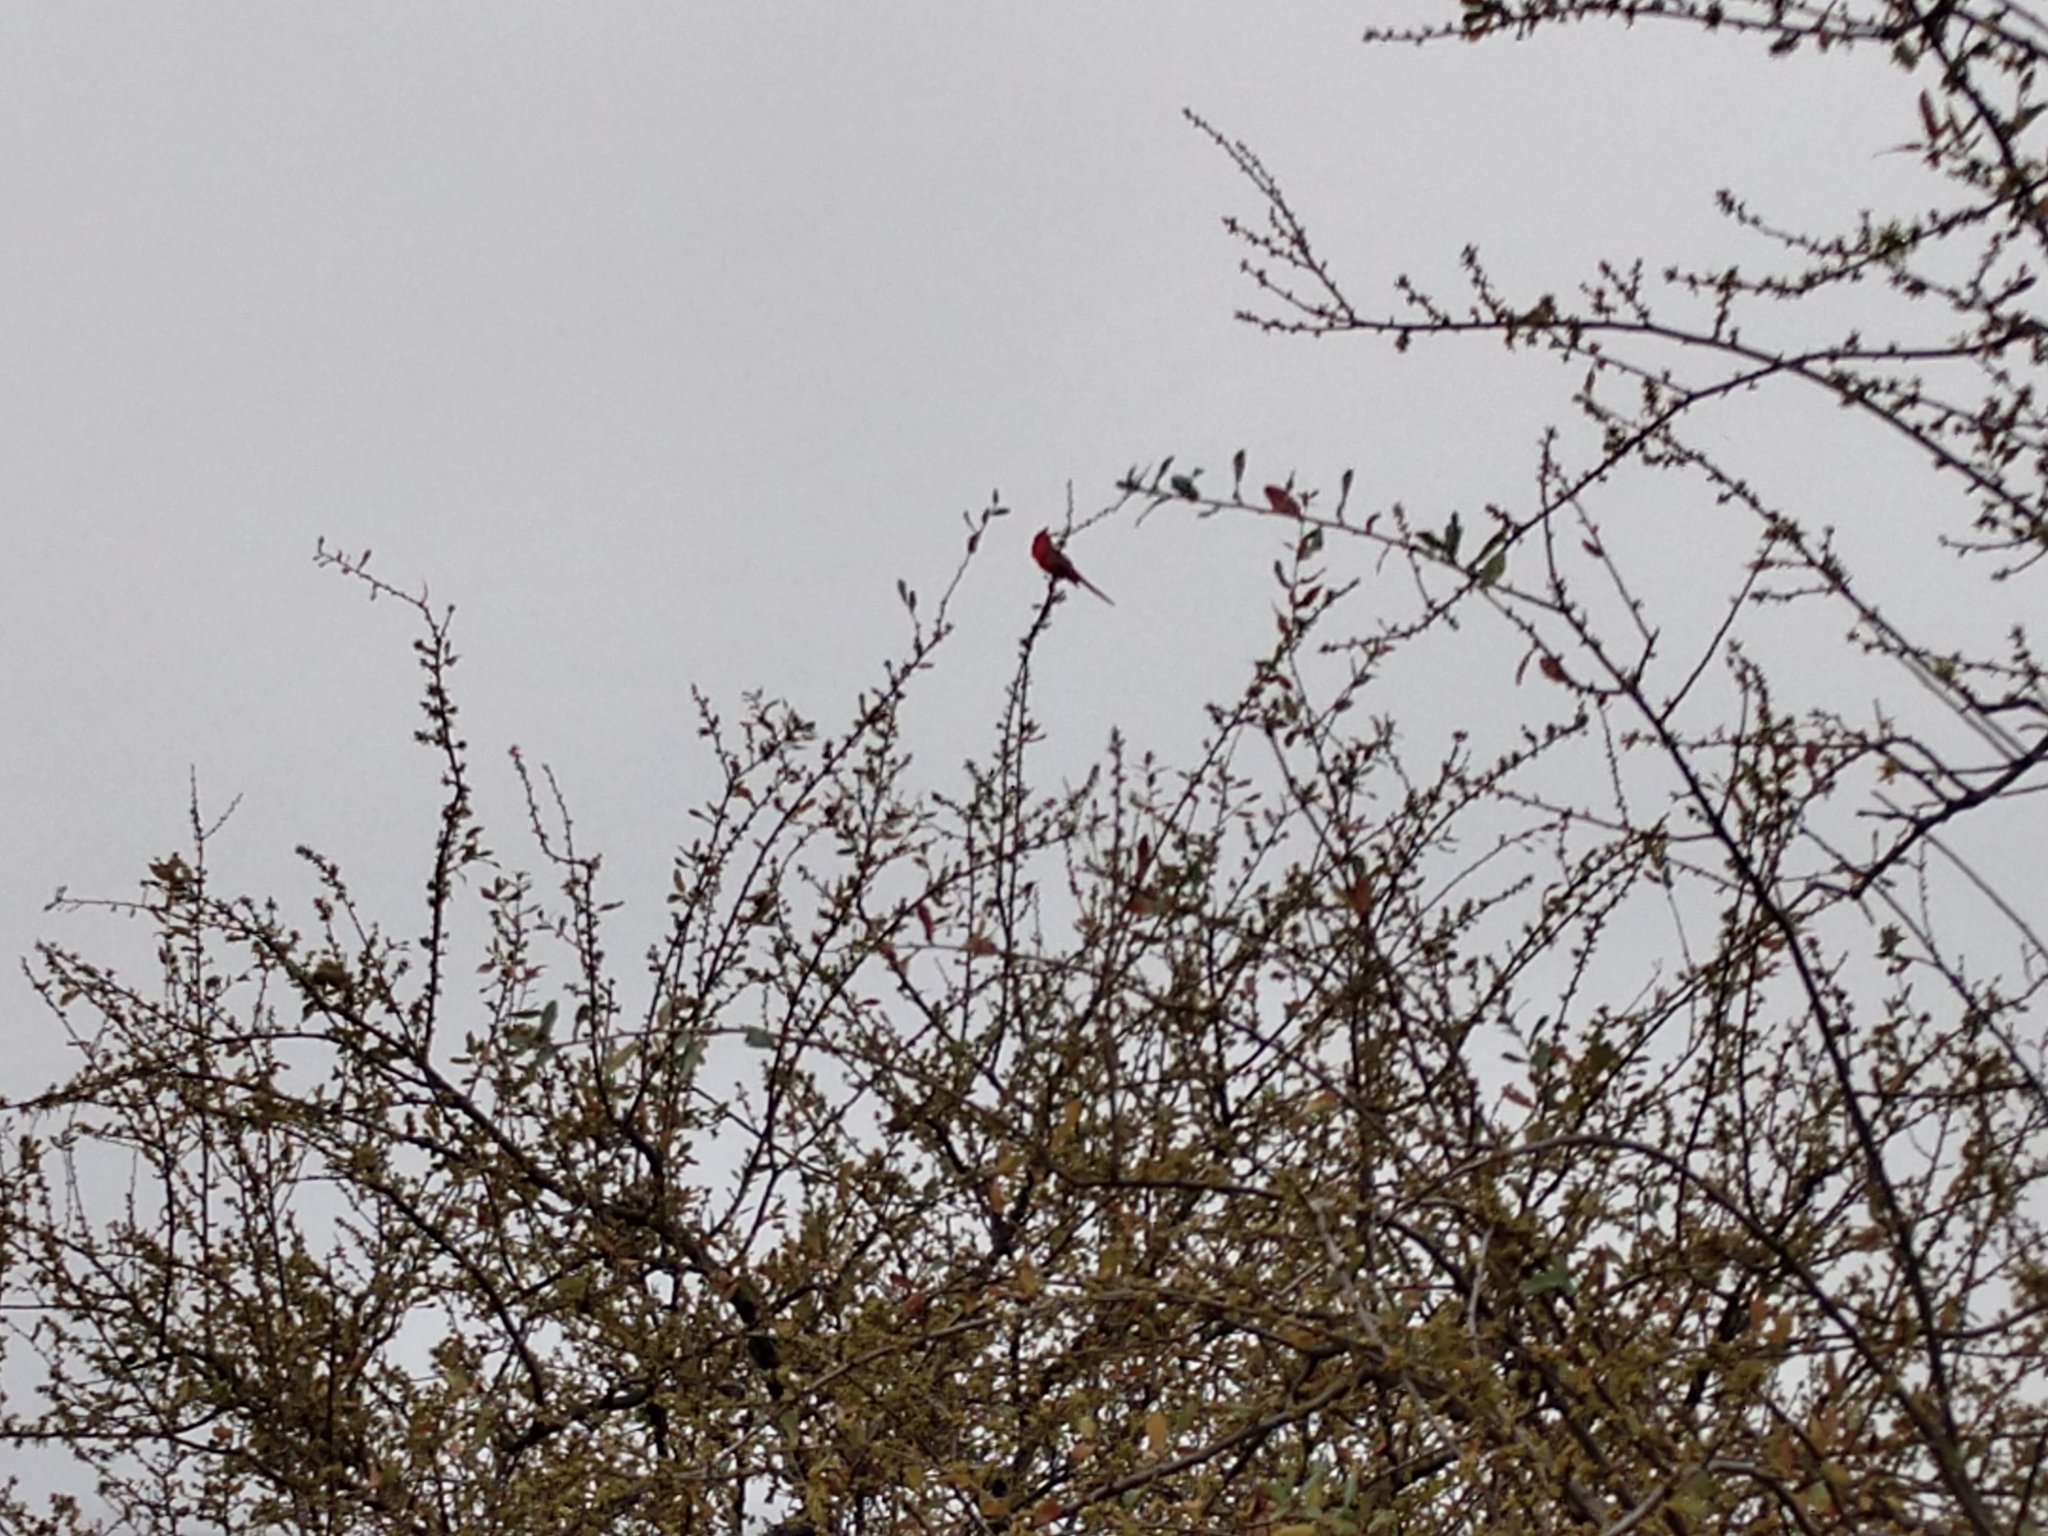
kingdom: Animalia
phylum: Chordata
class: Aves
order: Passeriformes
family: Cardinalidae
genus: Cardinalis
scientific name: Cardinalis cardinalis
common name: Northern cardinal
